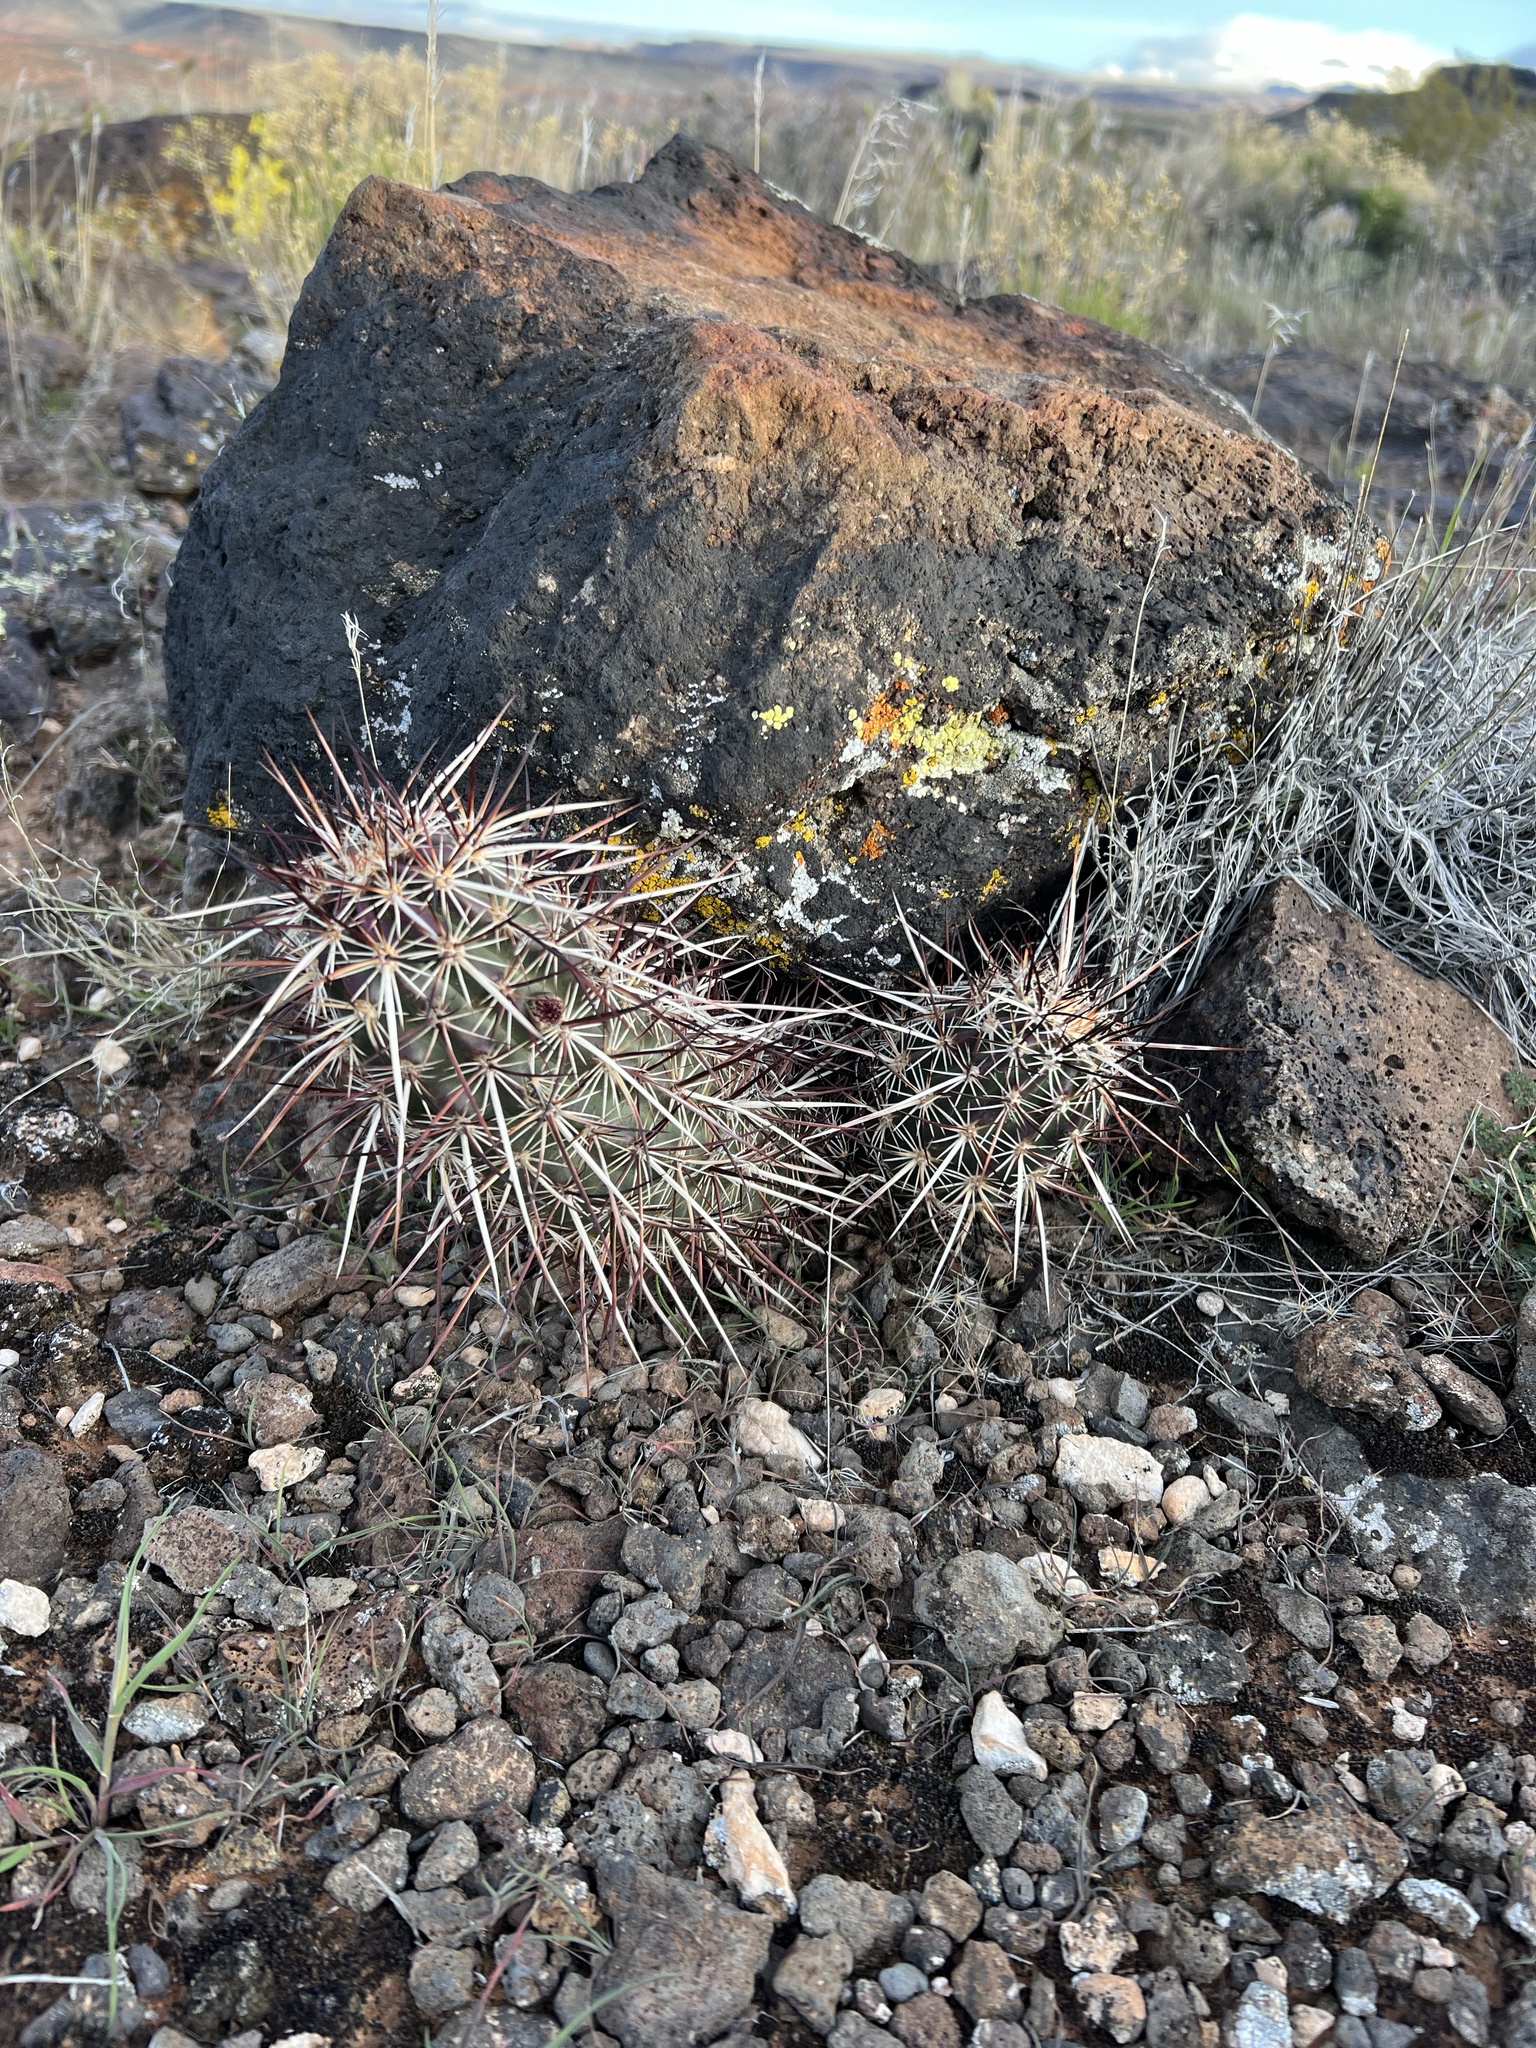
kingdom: Plantae
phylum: Tracheophyta
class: Magnoliopsida
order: Caryophyllales
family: Cactaceae
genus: Echinocereus
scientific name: Echinocereus relictus
